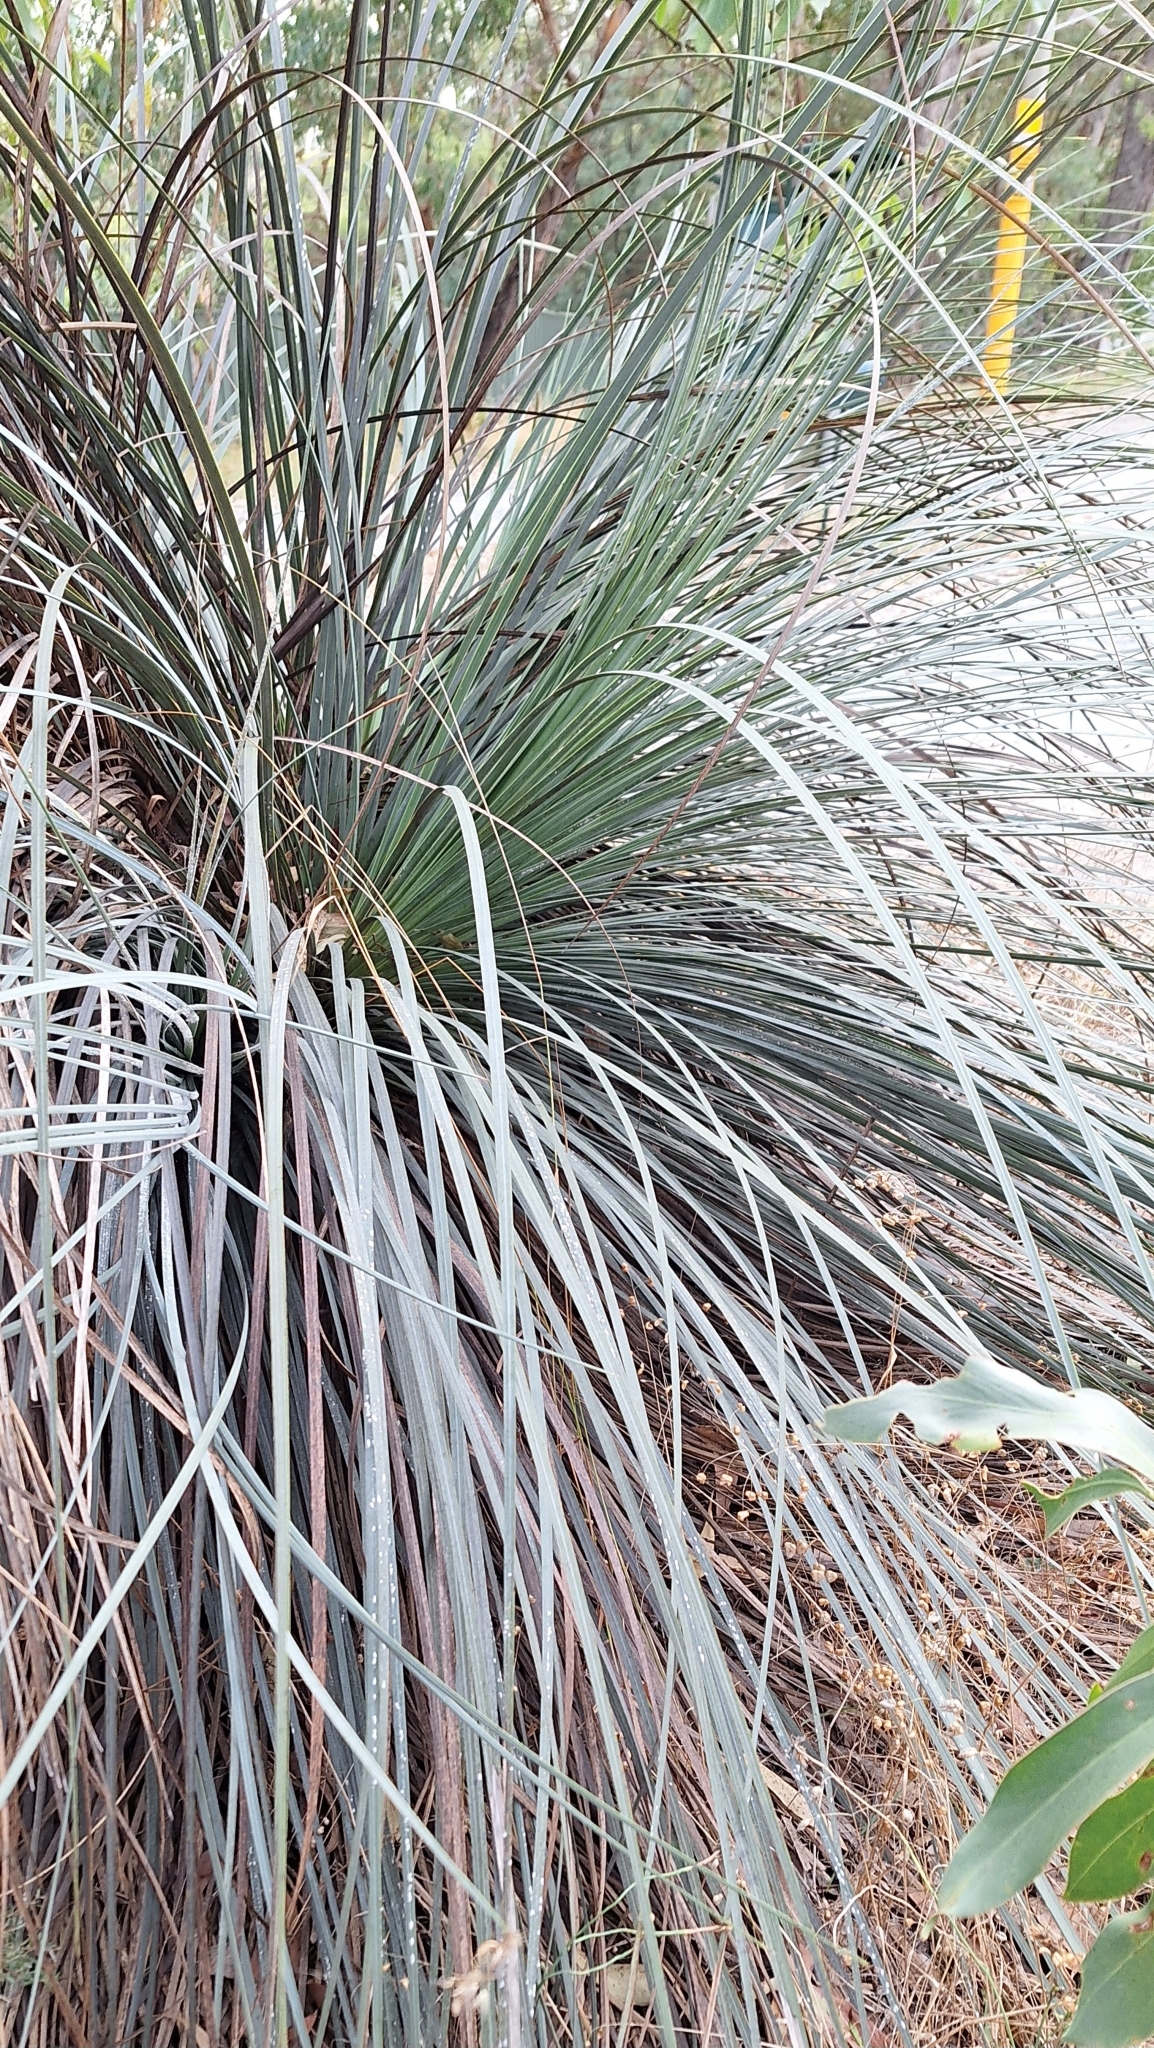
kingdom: Plantae
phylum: Tracheophyta
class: Liliopsida
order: Asparagales
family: Asphodelaceae
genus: Xanthorrhoea
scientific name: Xanthorrhoea semiplana
